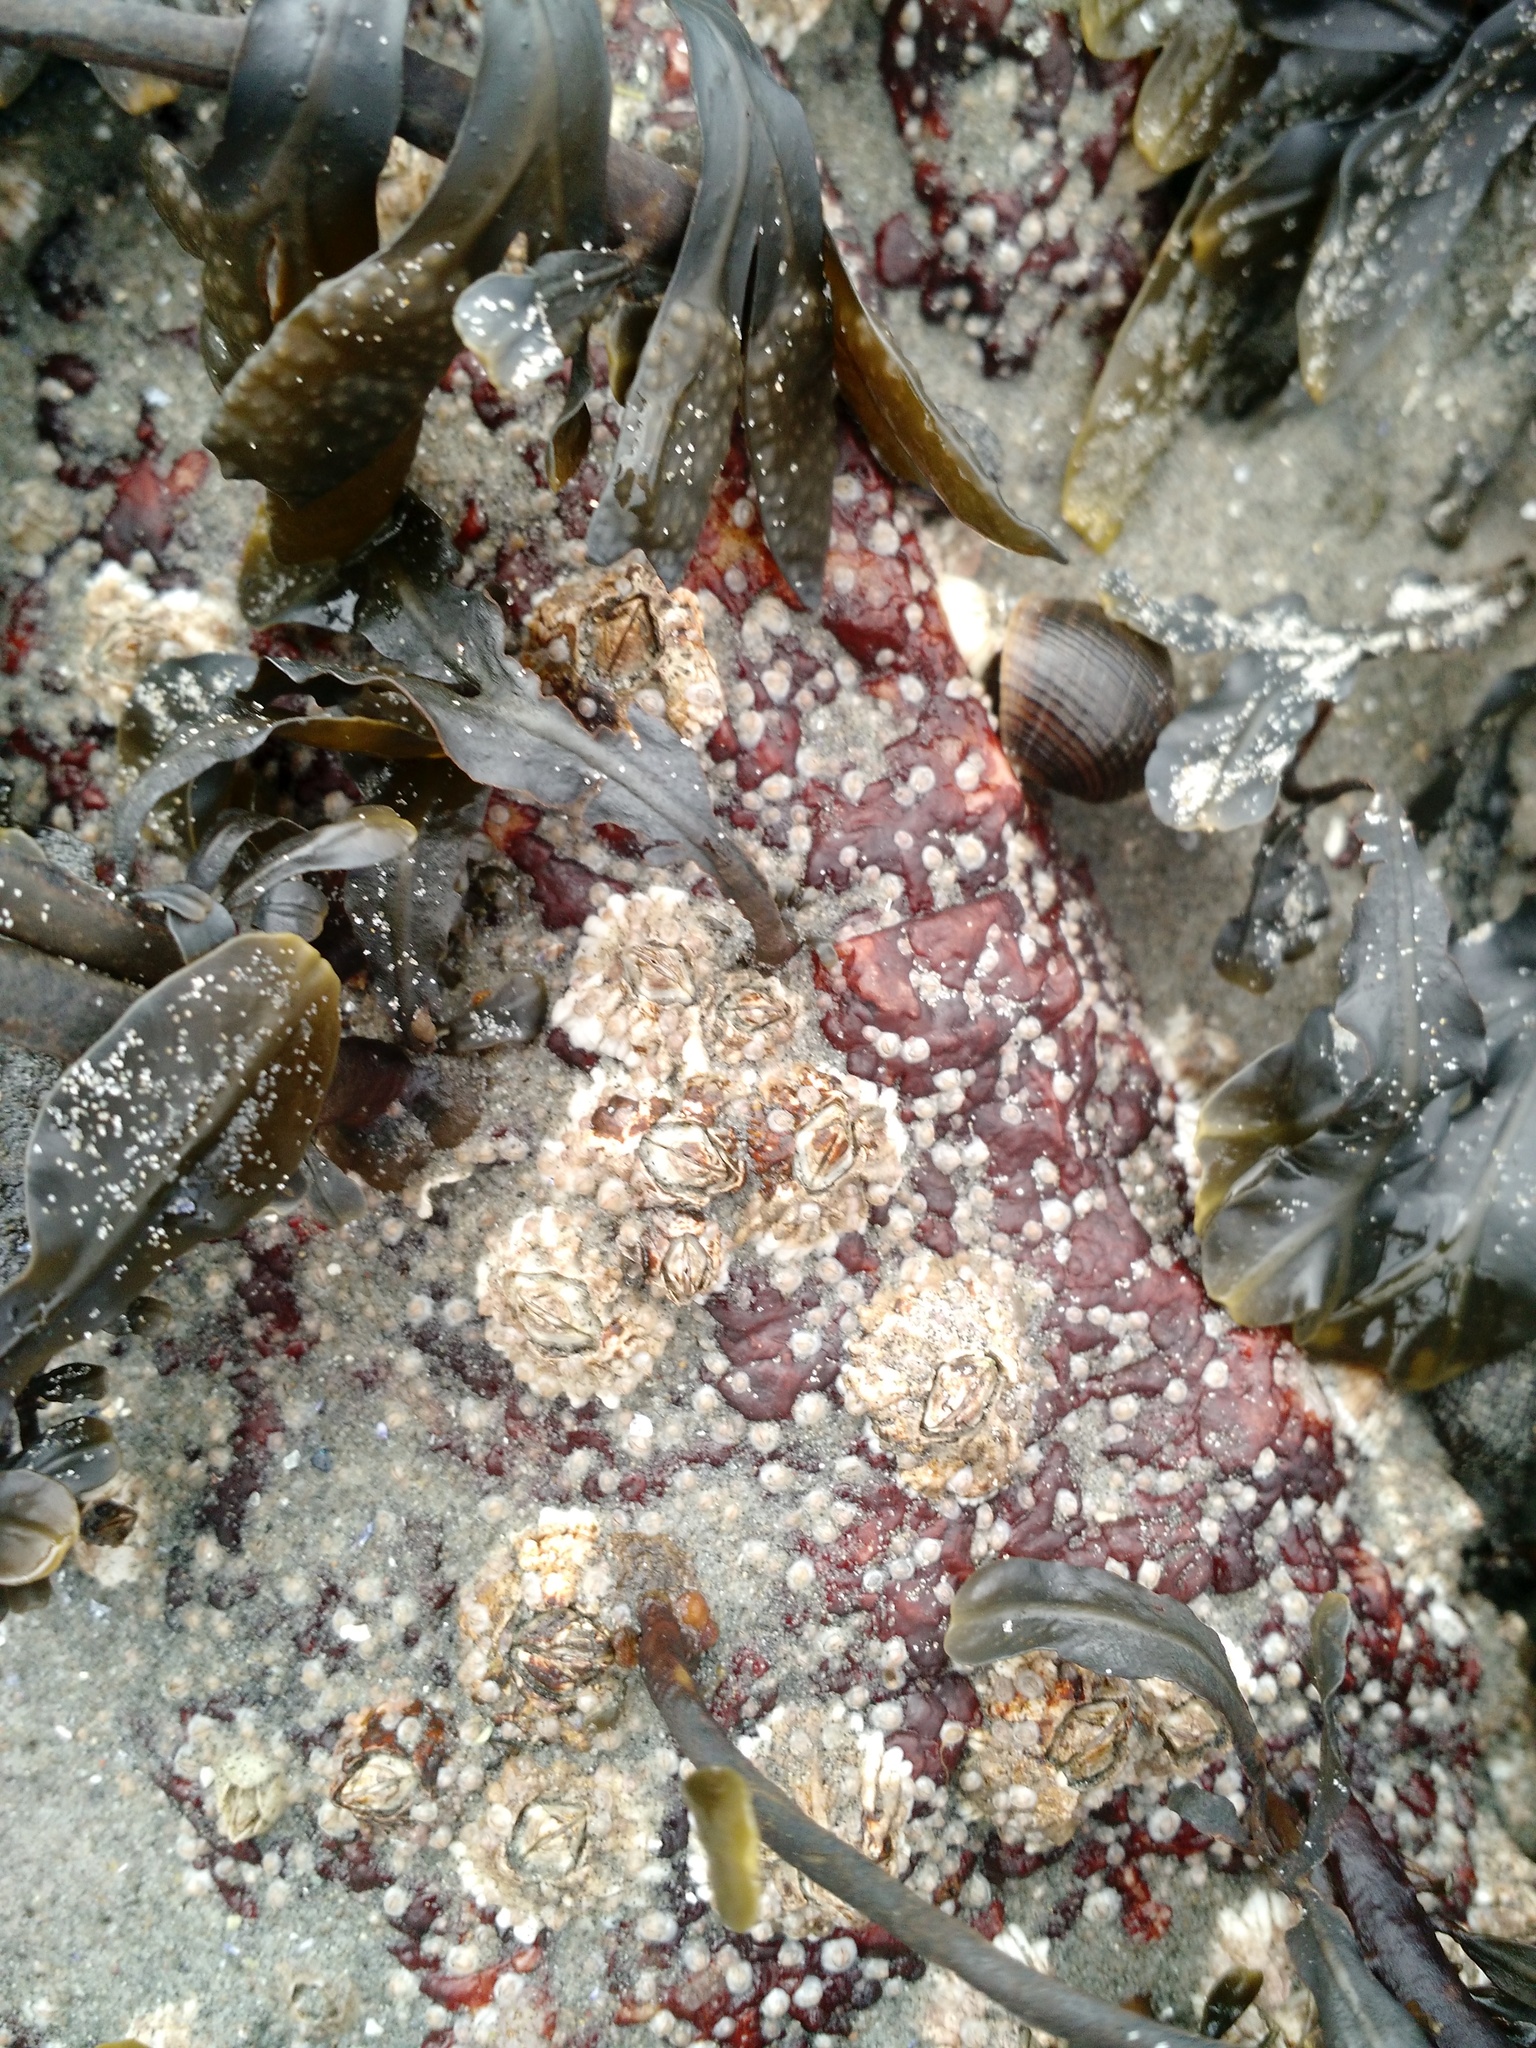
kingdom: Animalia
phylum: Arthropoda
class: Maxillopoda
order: Sessilia
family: Archaeobalanidae
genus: Semibalanus
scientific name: Semibalanus balanoides
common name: Acorn barnacle
